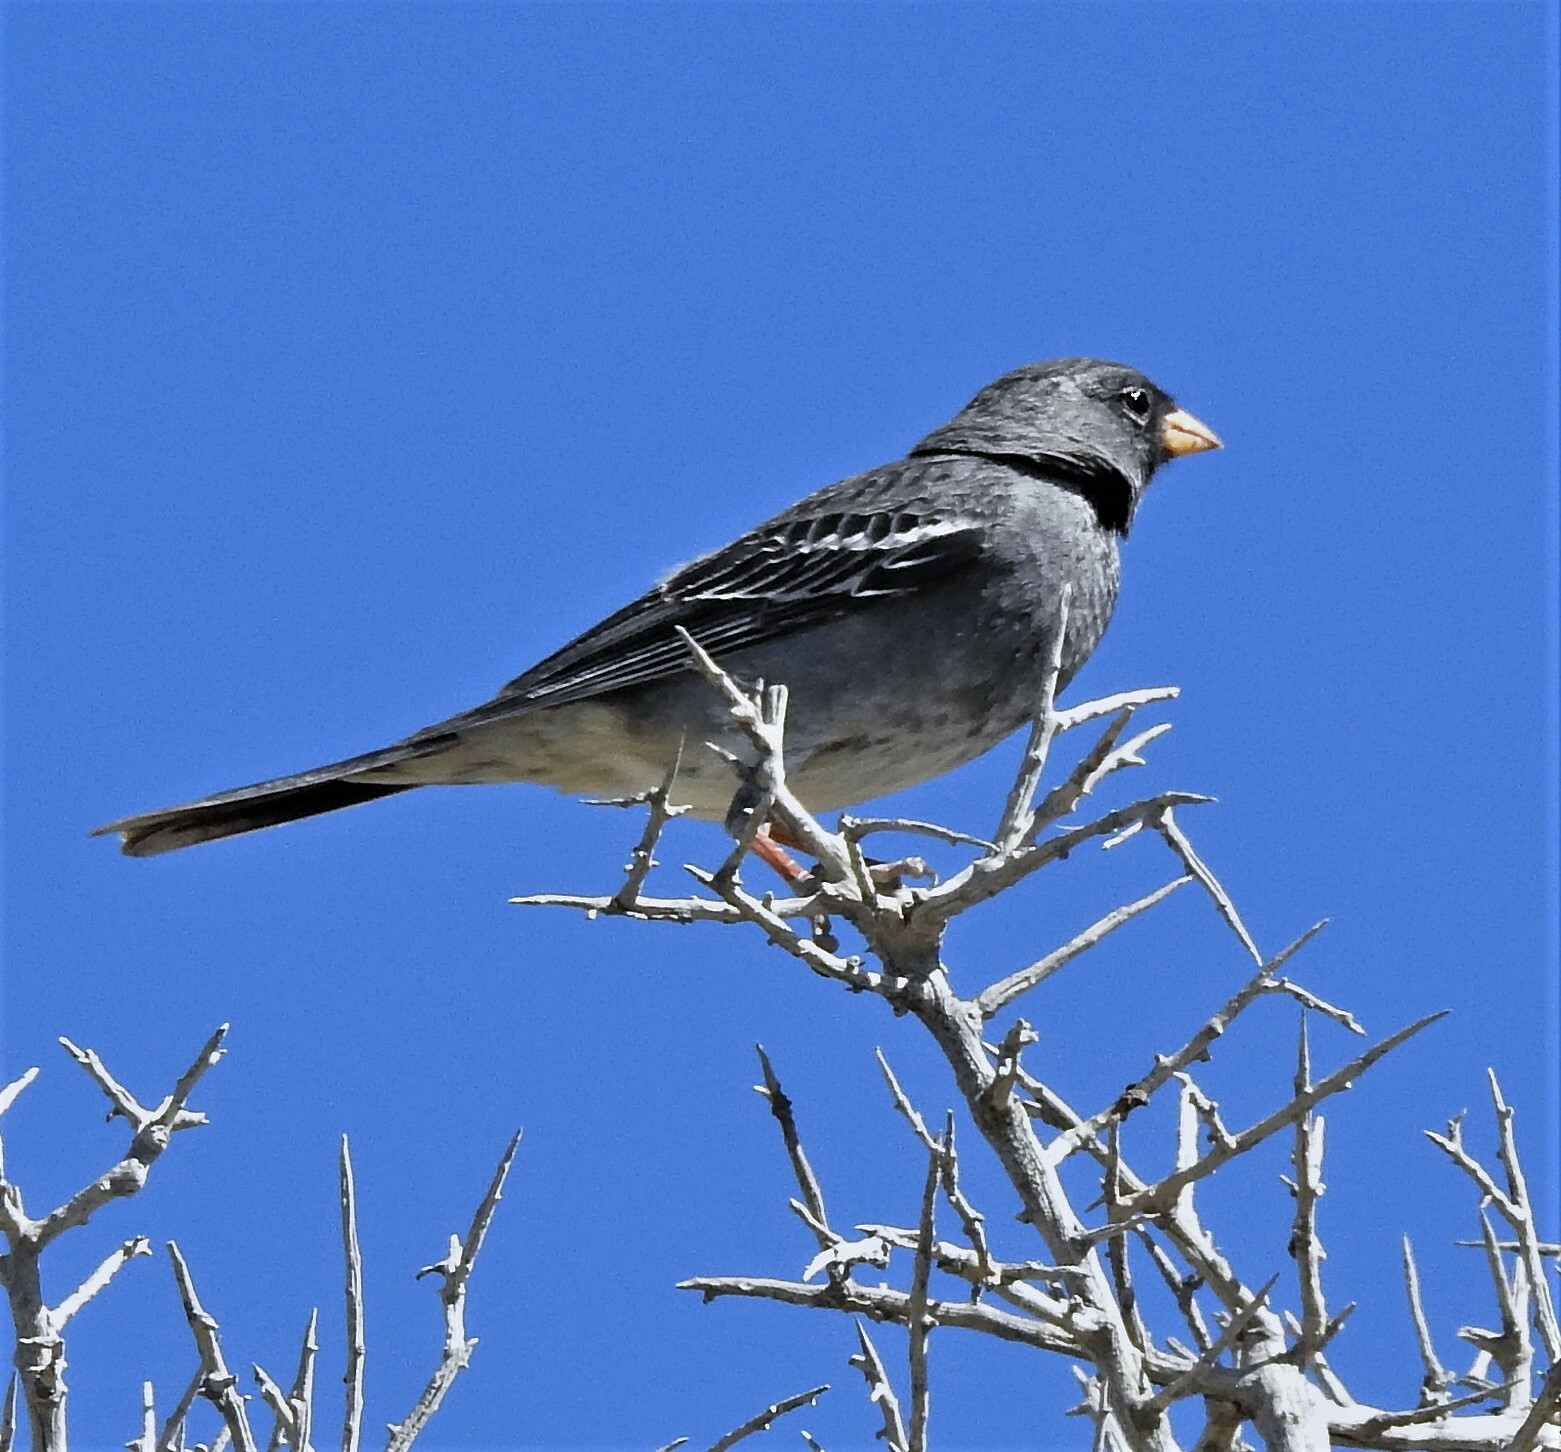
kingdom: Animalia
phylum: Chordata
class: Aves
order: Passeriformes
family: Thraupidae
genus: Rhopospina
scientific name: Rhopospina fruticeti
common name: Mourning sierra finch
